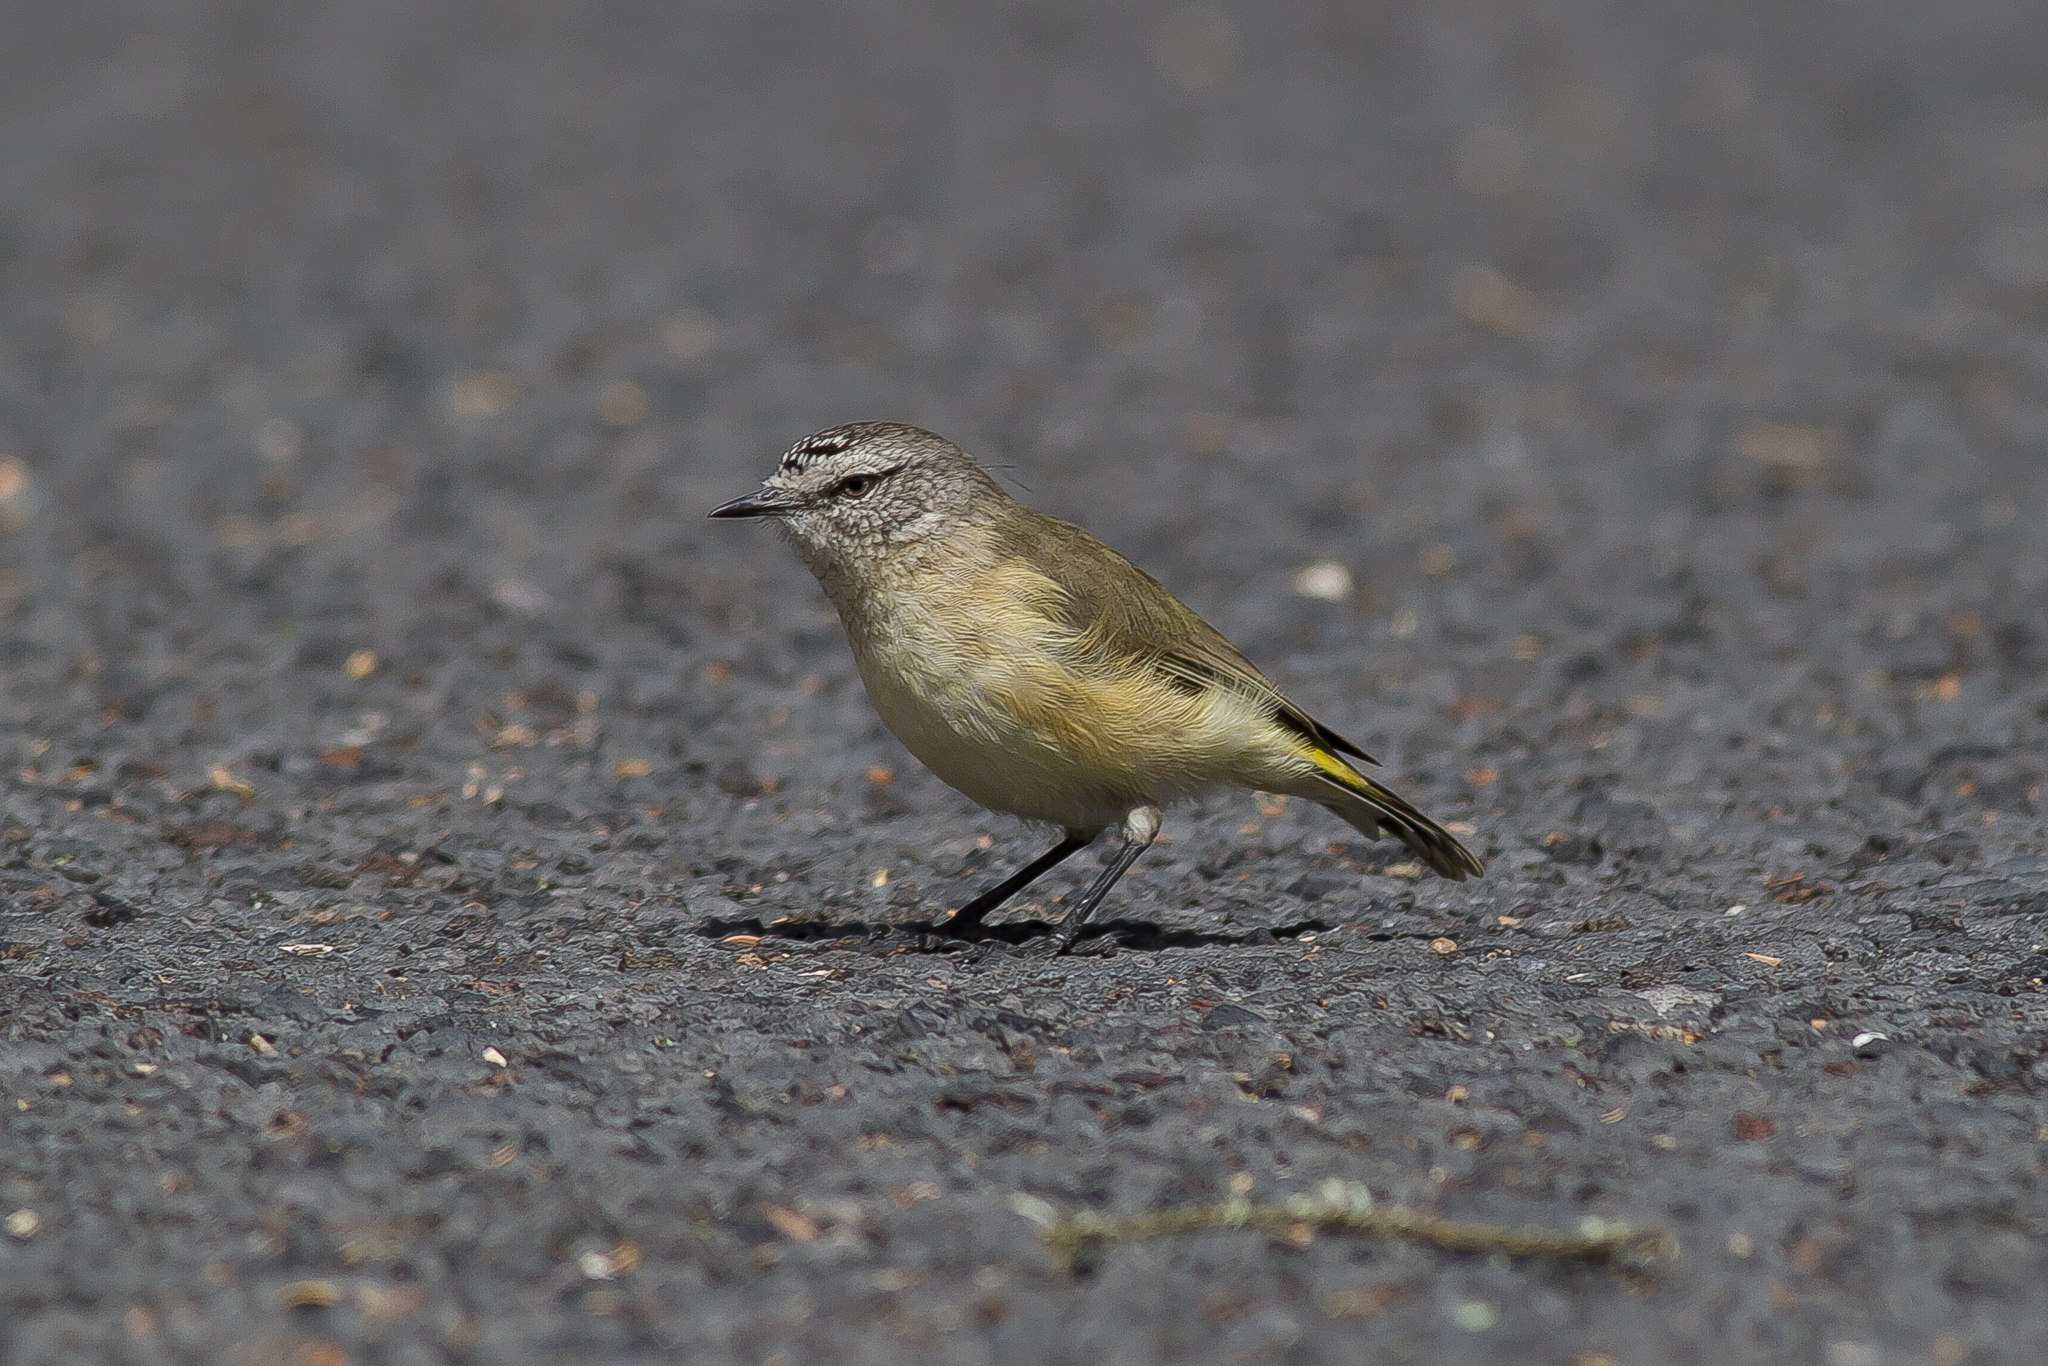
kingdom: Animalia
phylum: Chordata
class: Aves
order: Passeriformes
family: Acanthizidae
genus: Acanthiza
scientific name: Acanthiza chrysorrhoa
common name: Yellow-rumped thornbill
